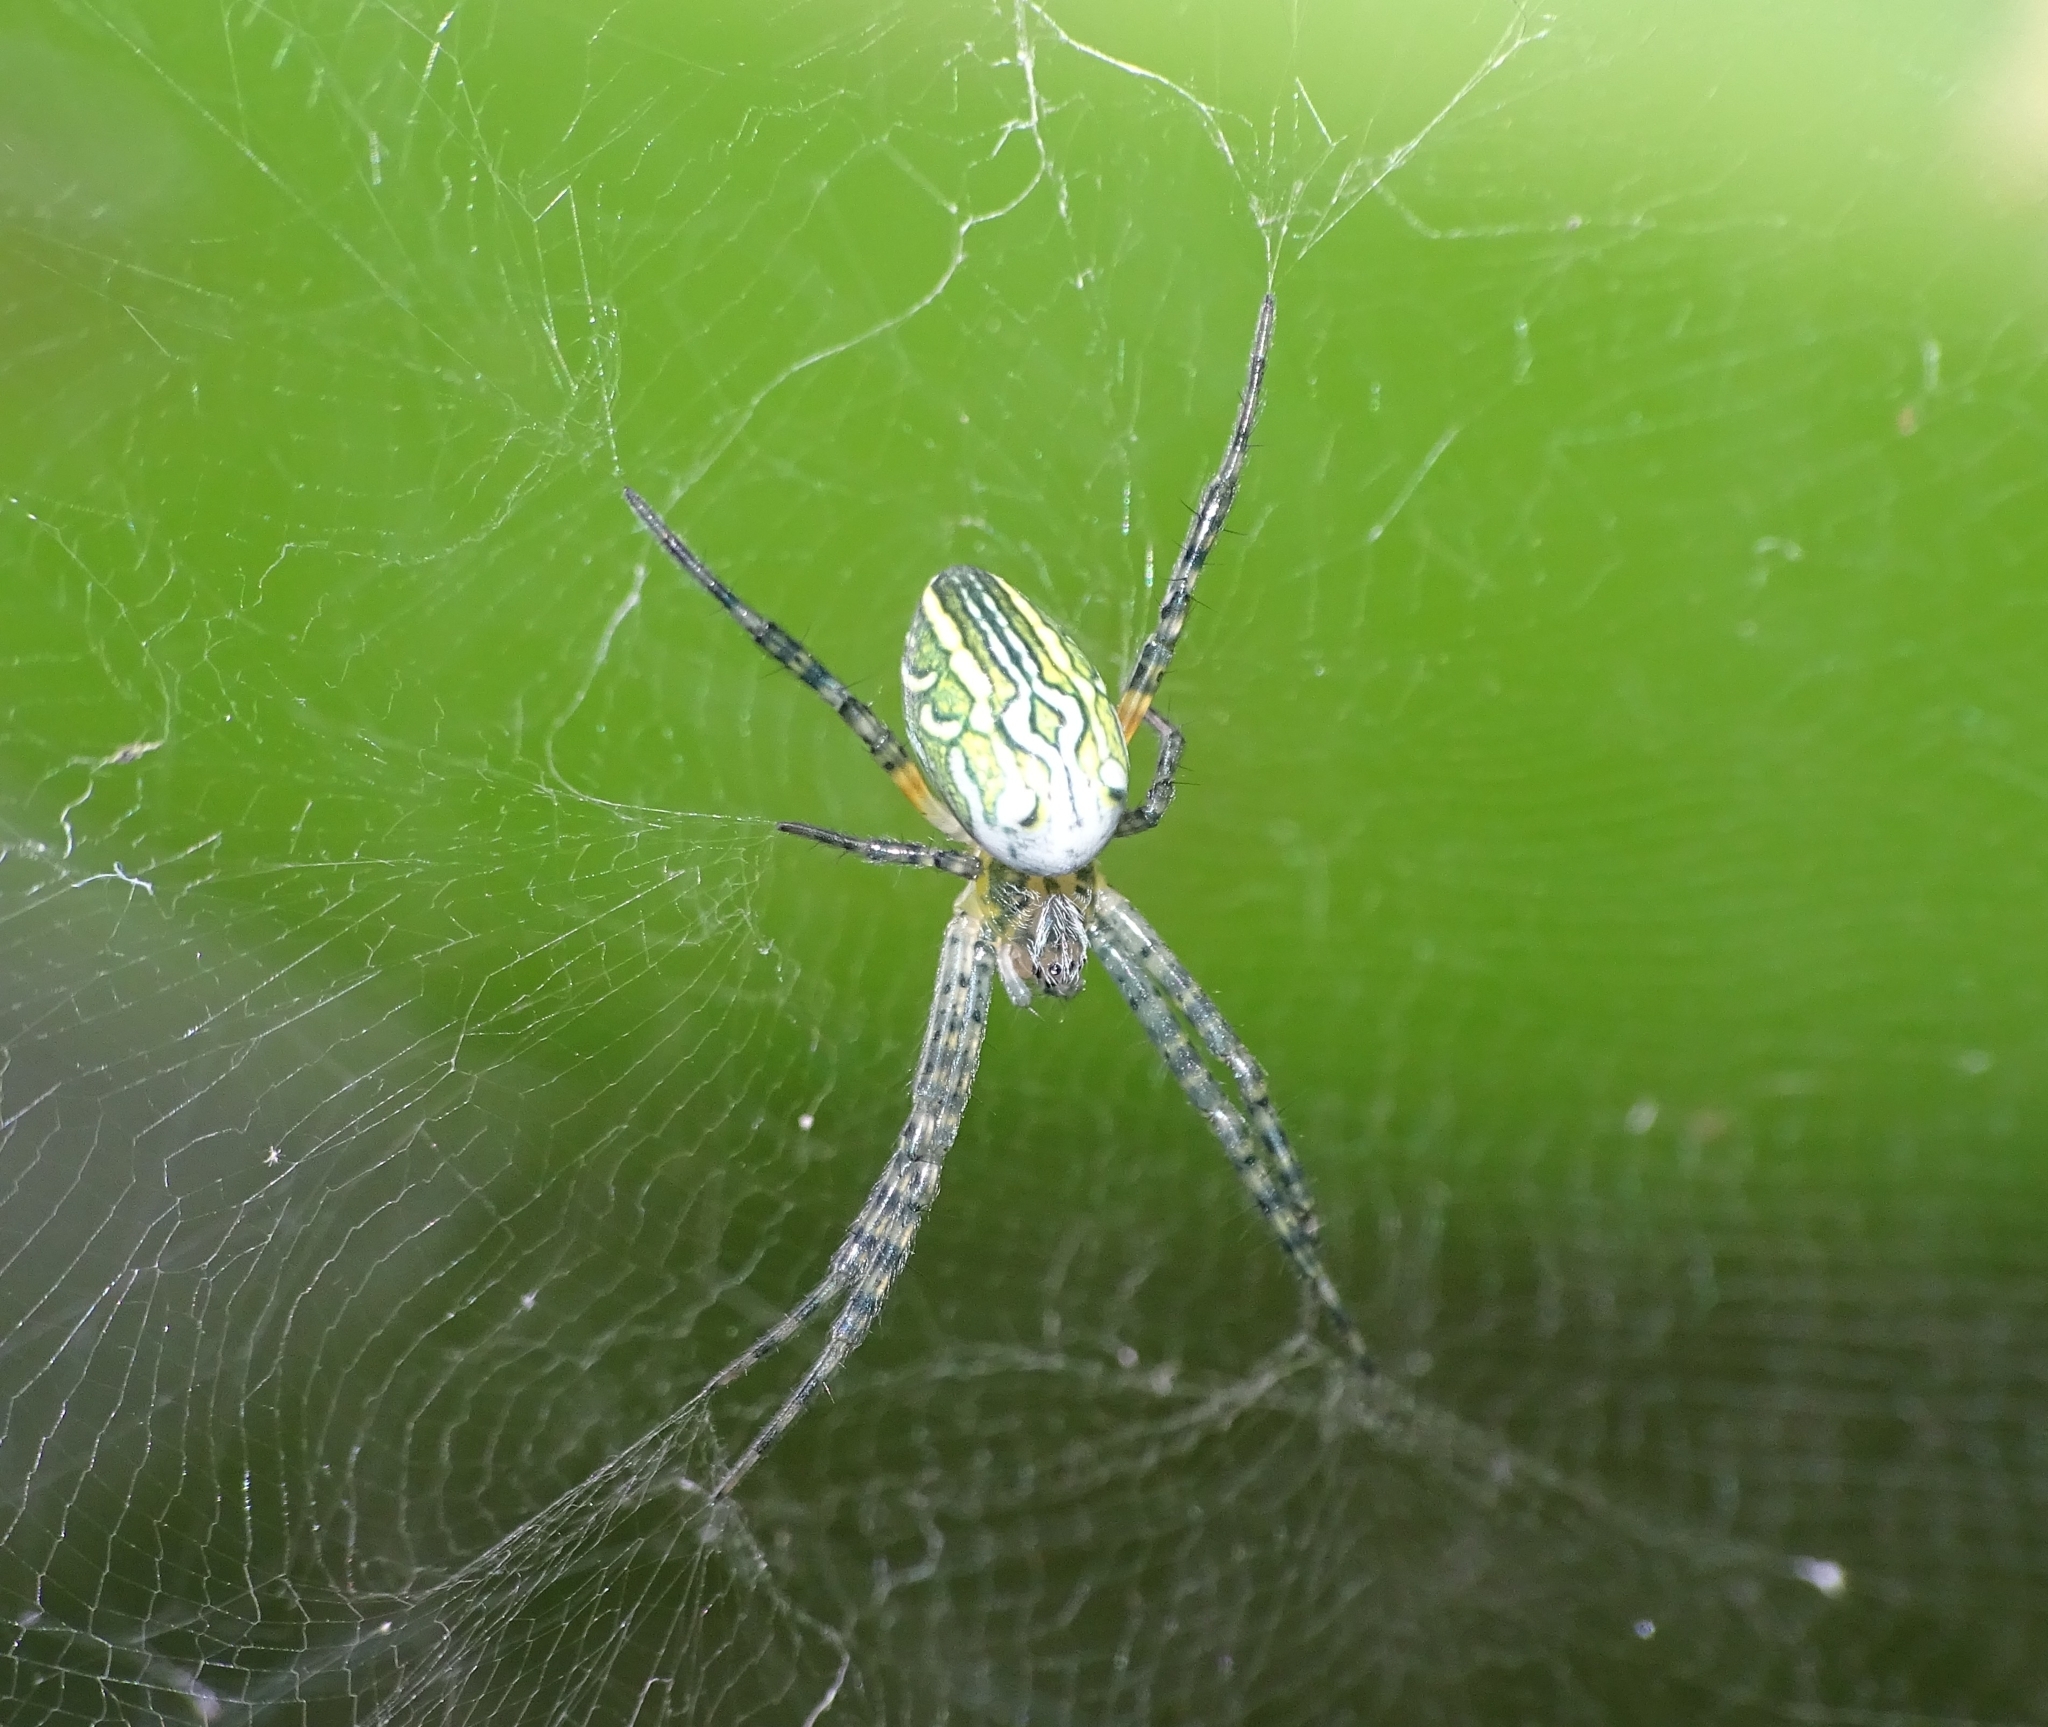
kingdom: Chromista
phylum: Ochrophyta
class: Dictyochophyceae
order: Pedinellales
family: Cyrtophoraceae
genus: Cyrtophora
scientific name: Cyrtophora moluccensis
